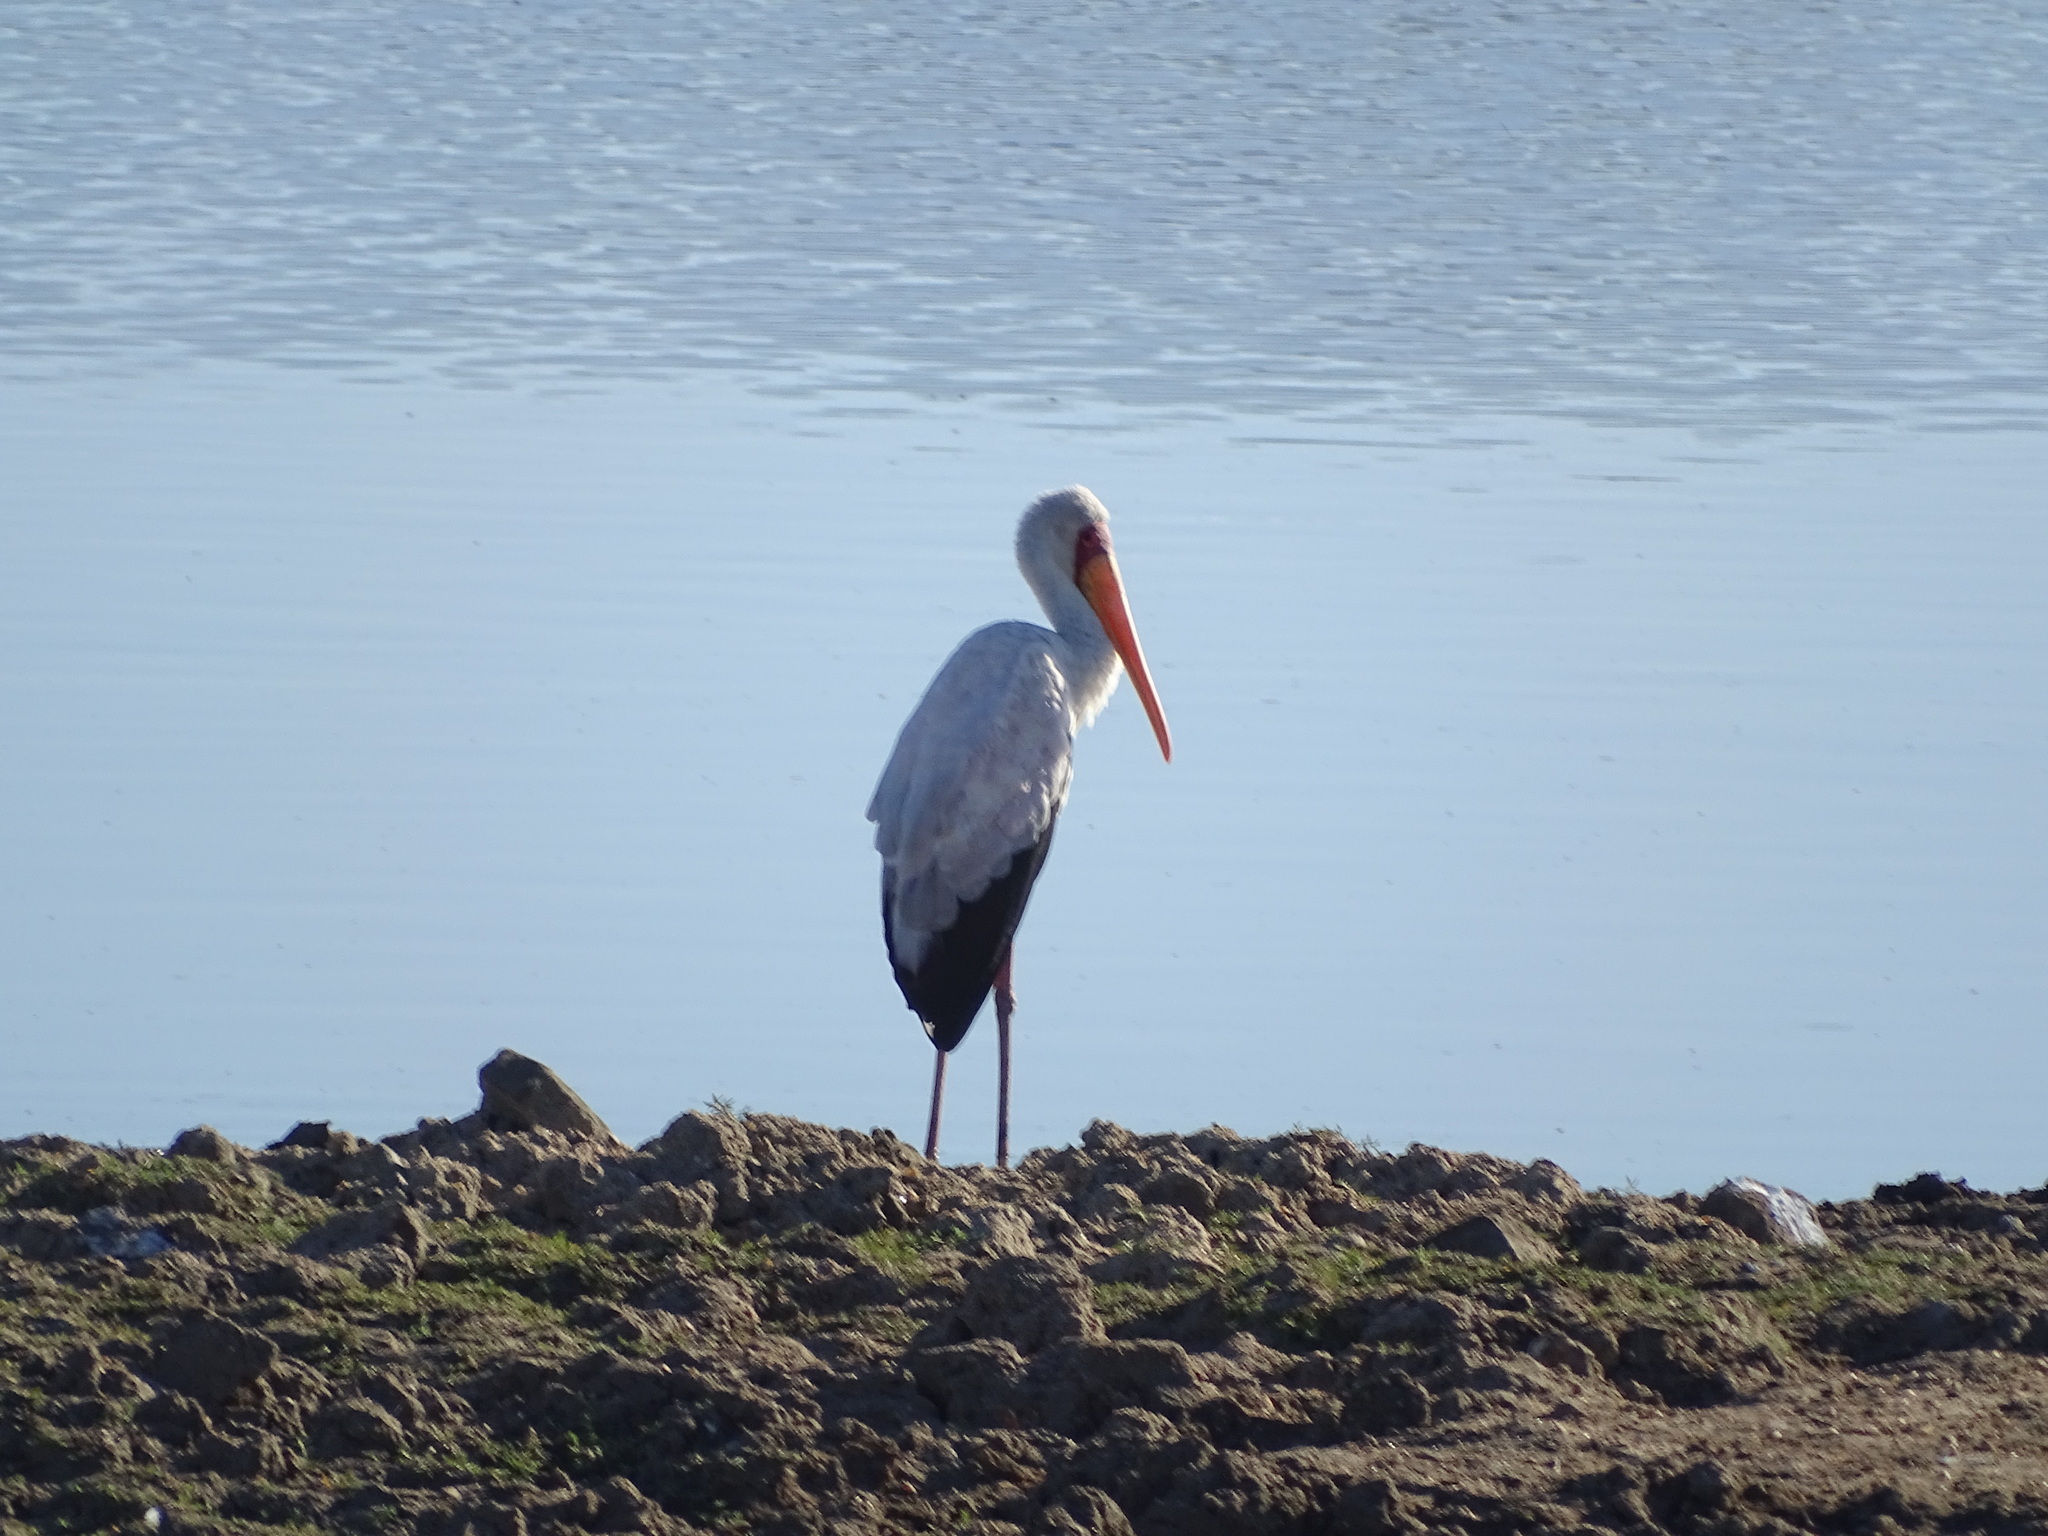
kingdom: Animalia
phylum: Chordata
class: Aves
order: Ciconiiformes
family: Ciconiidae
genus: Mycteria
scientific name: Mycteria ibis
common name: Yellow-billed stork
